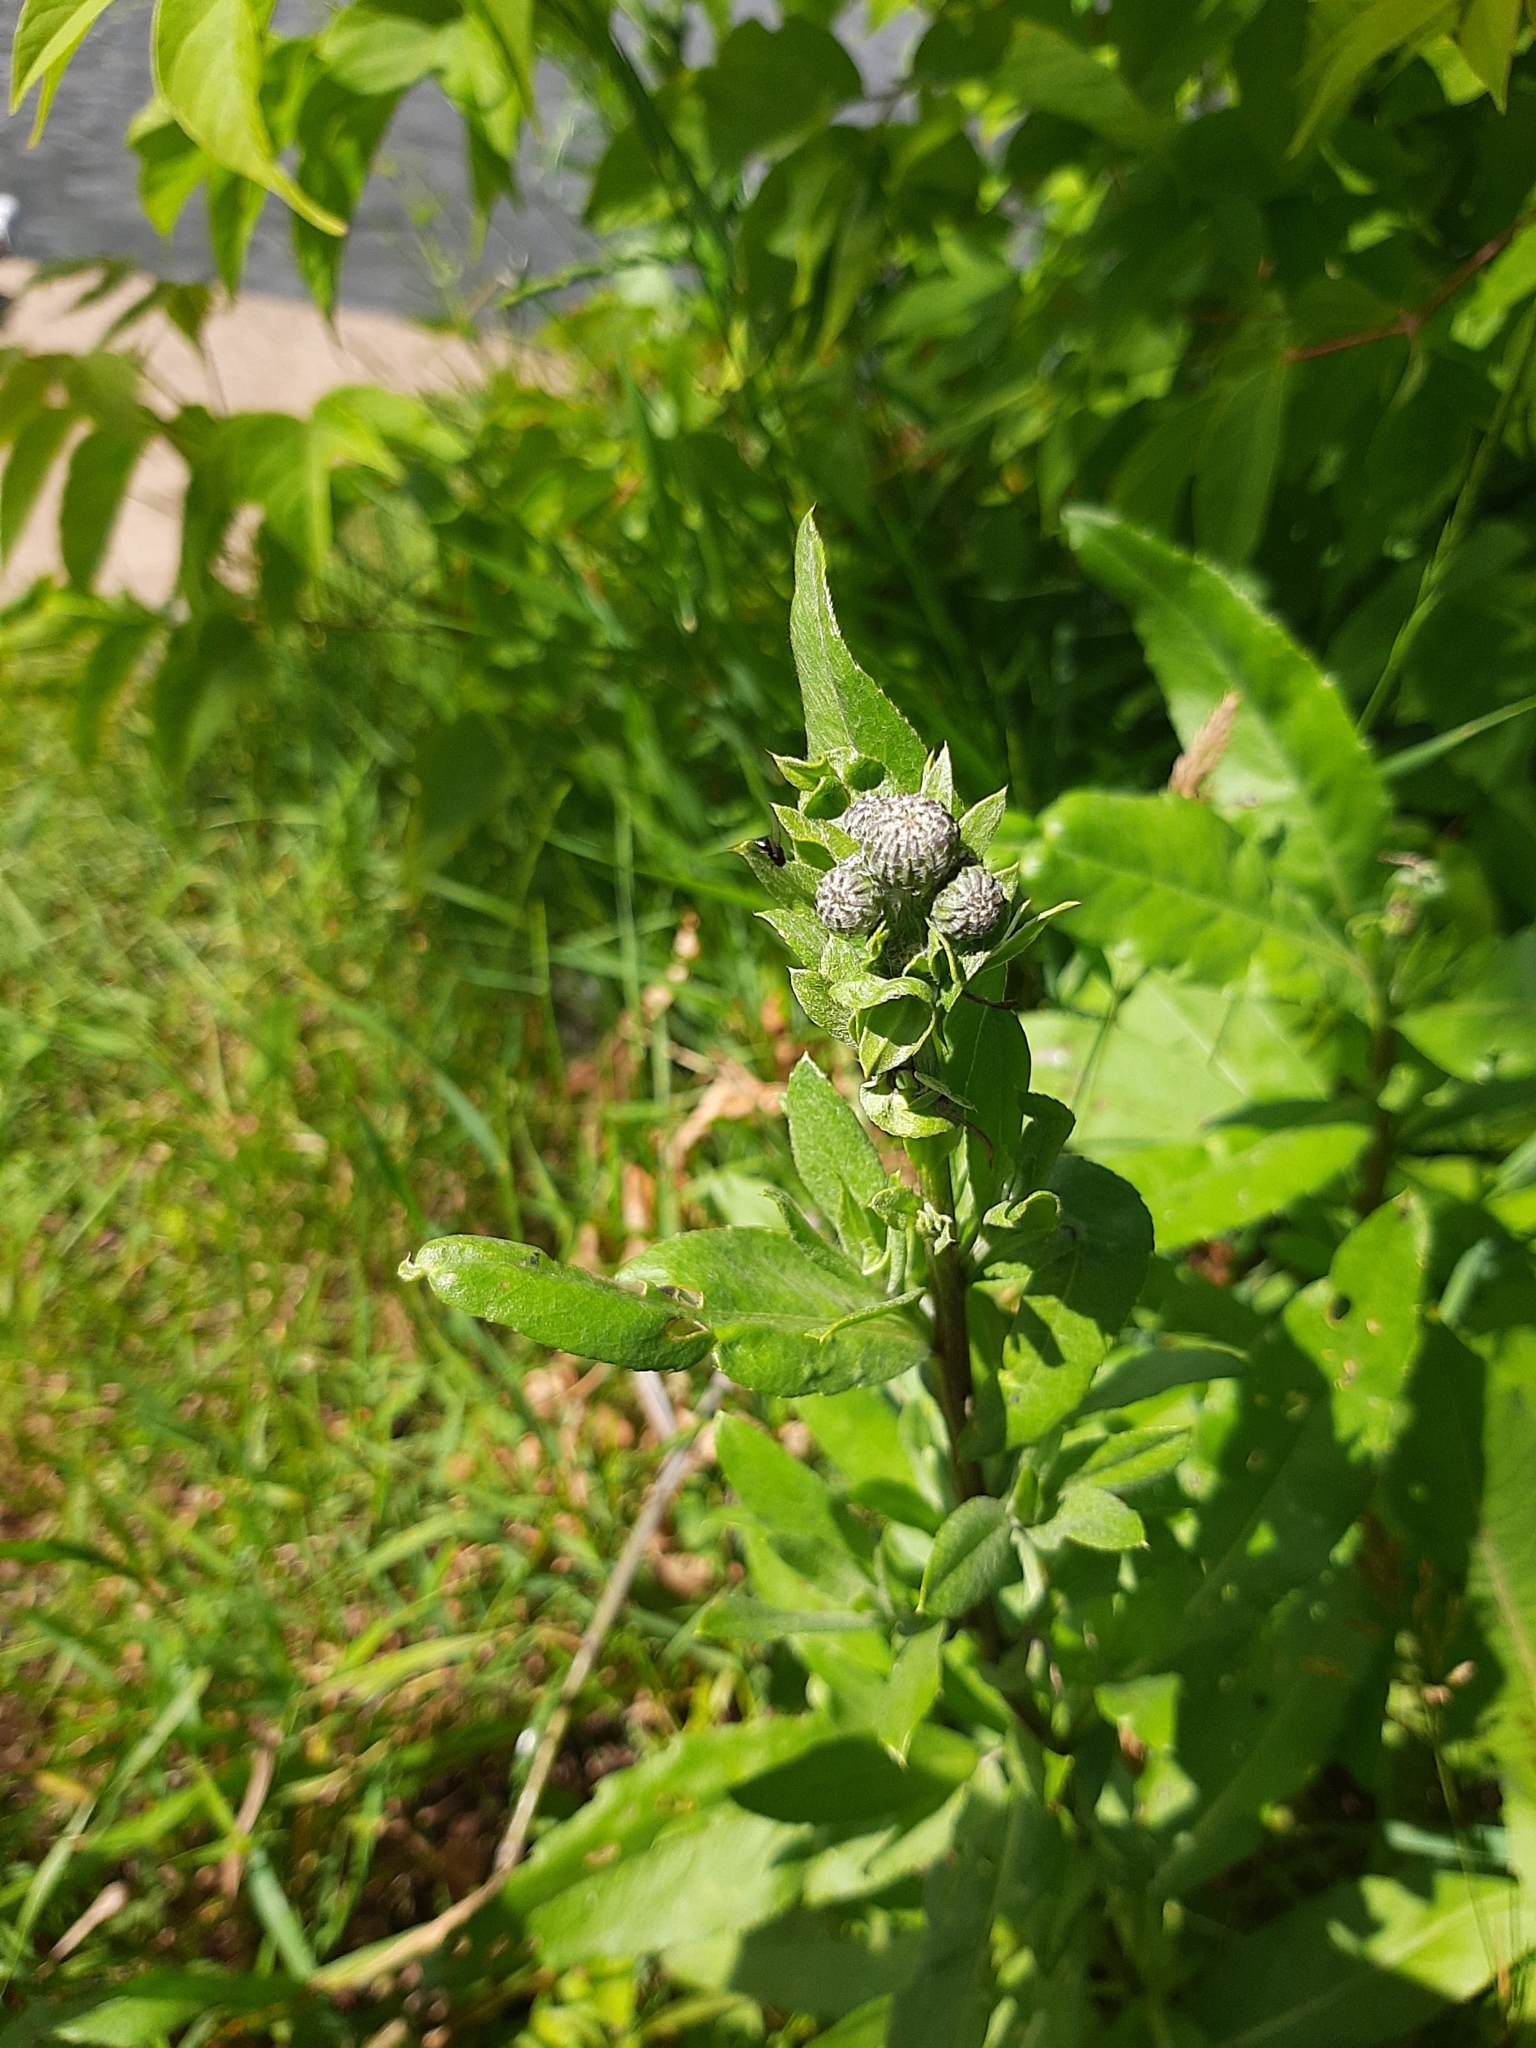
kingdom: Plantae
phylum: Tracheophyta
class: Magnoliopsida
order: Asterales
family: Asteraceae
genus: Cirsium
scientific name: Cirsium arvense
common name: Creeping thistle
